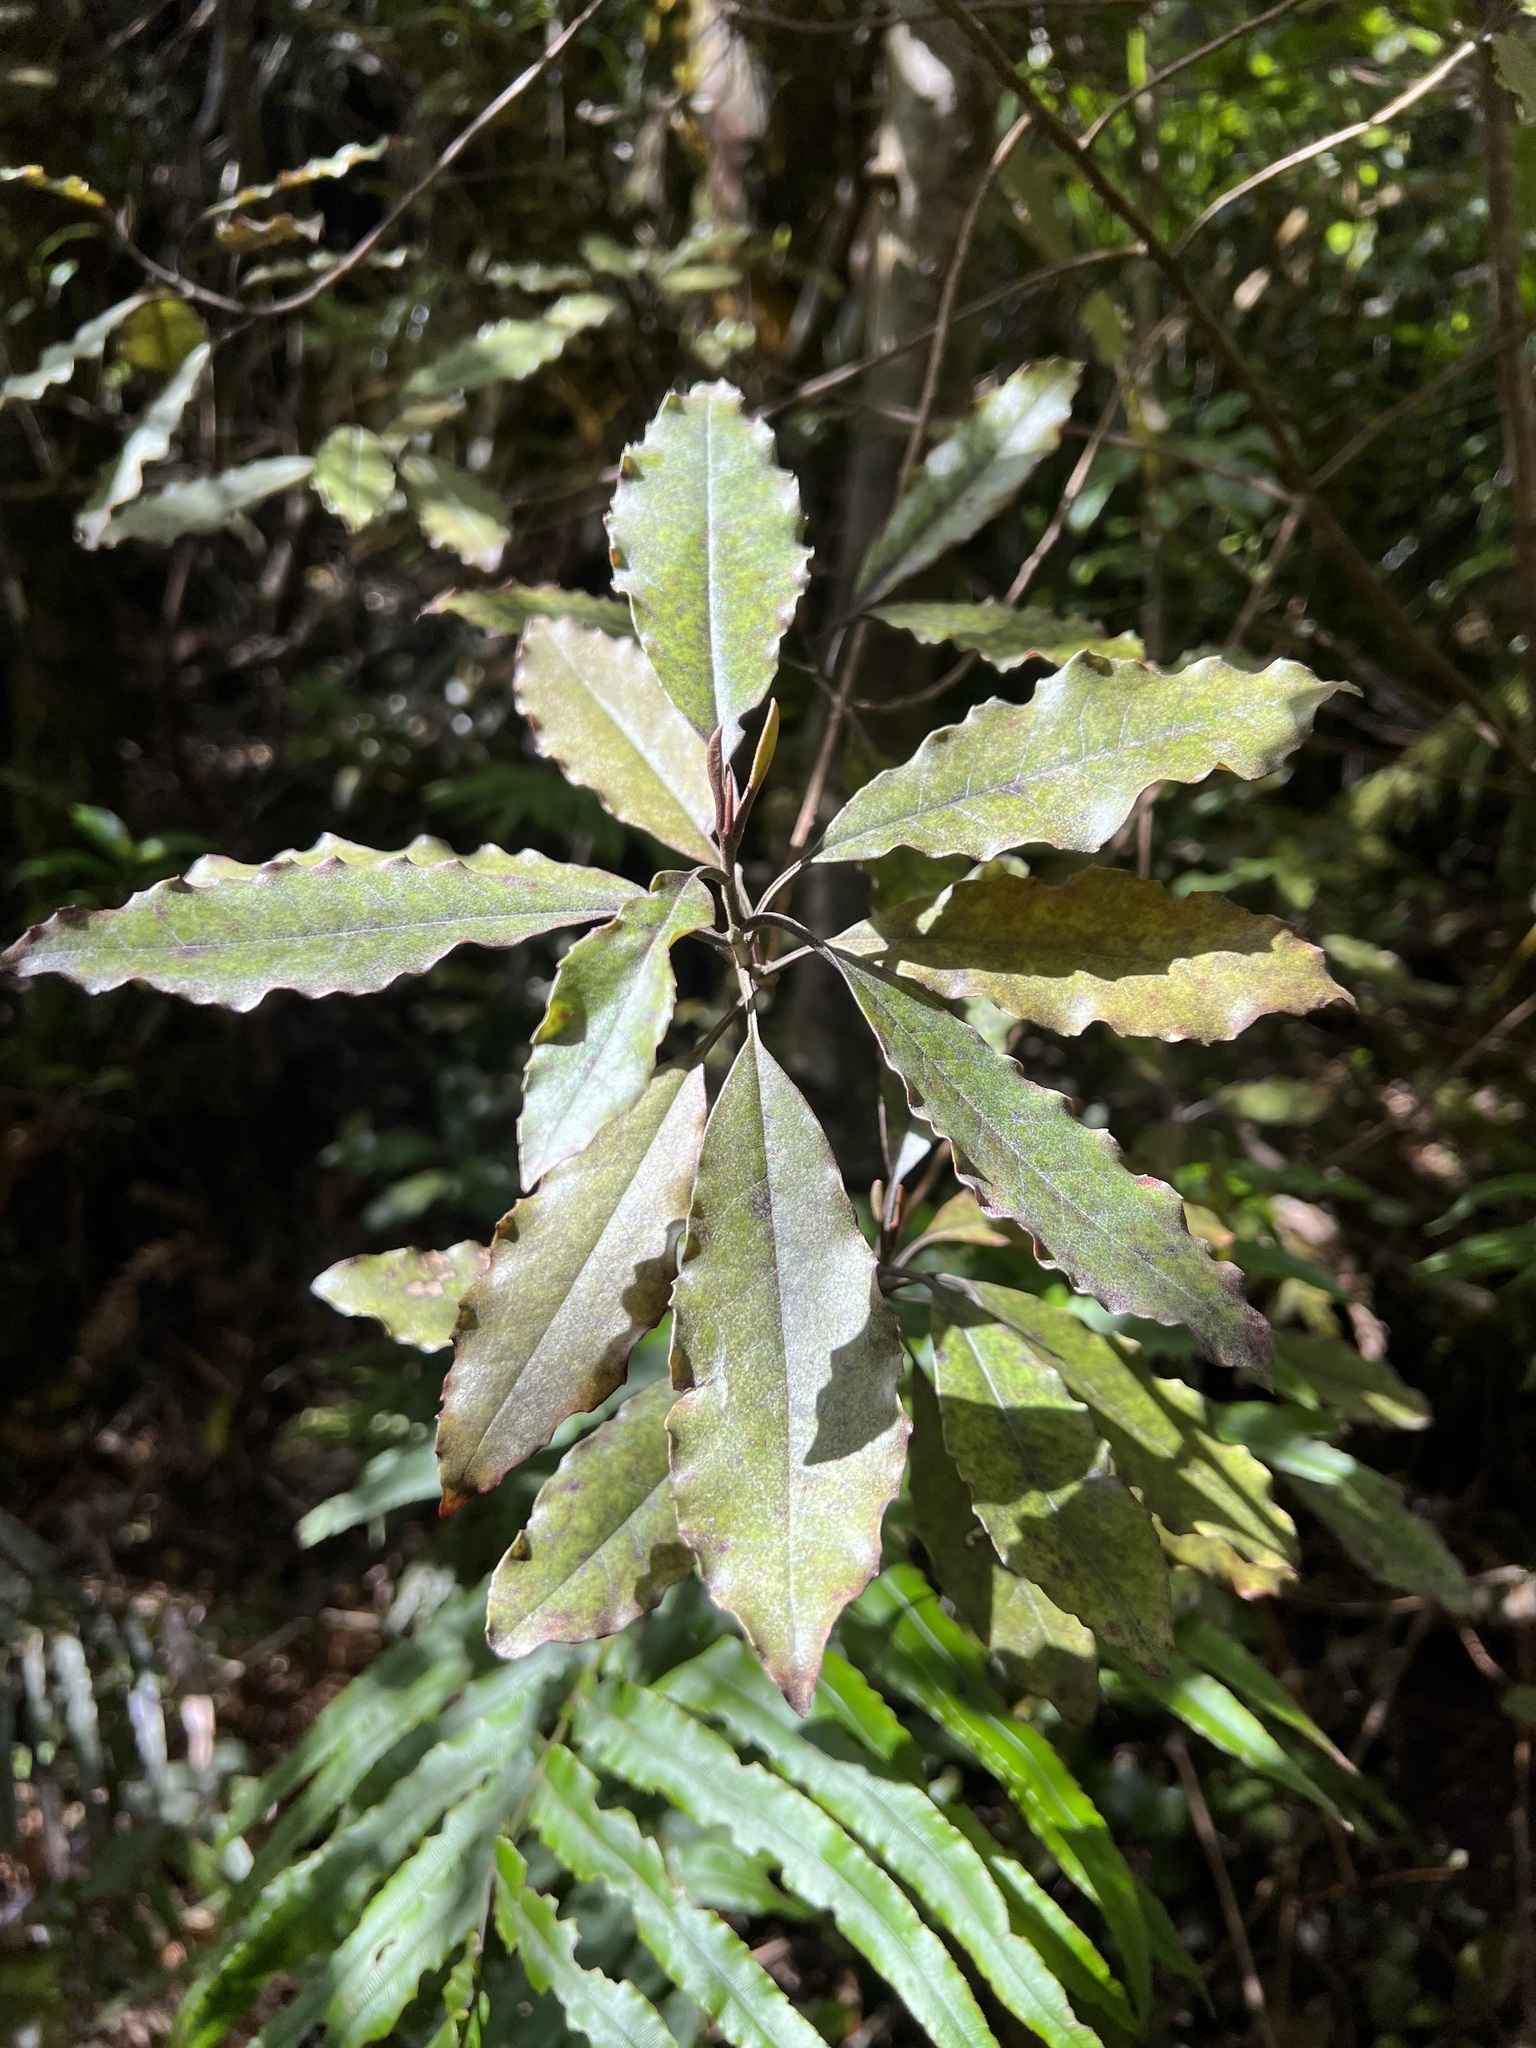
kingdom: Plantae
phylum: Tracheophyta
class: Magnoliopsida
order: Paracryphiales
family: Paracryphiaceae
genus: Quintinia
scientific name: Quintinia serrata
